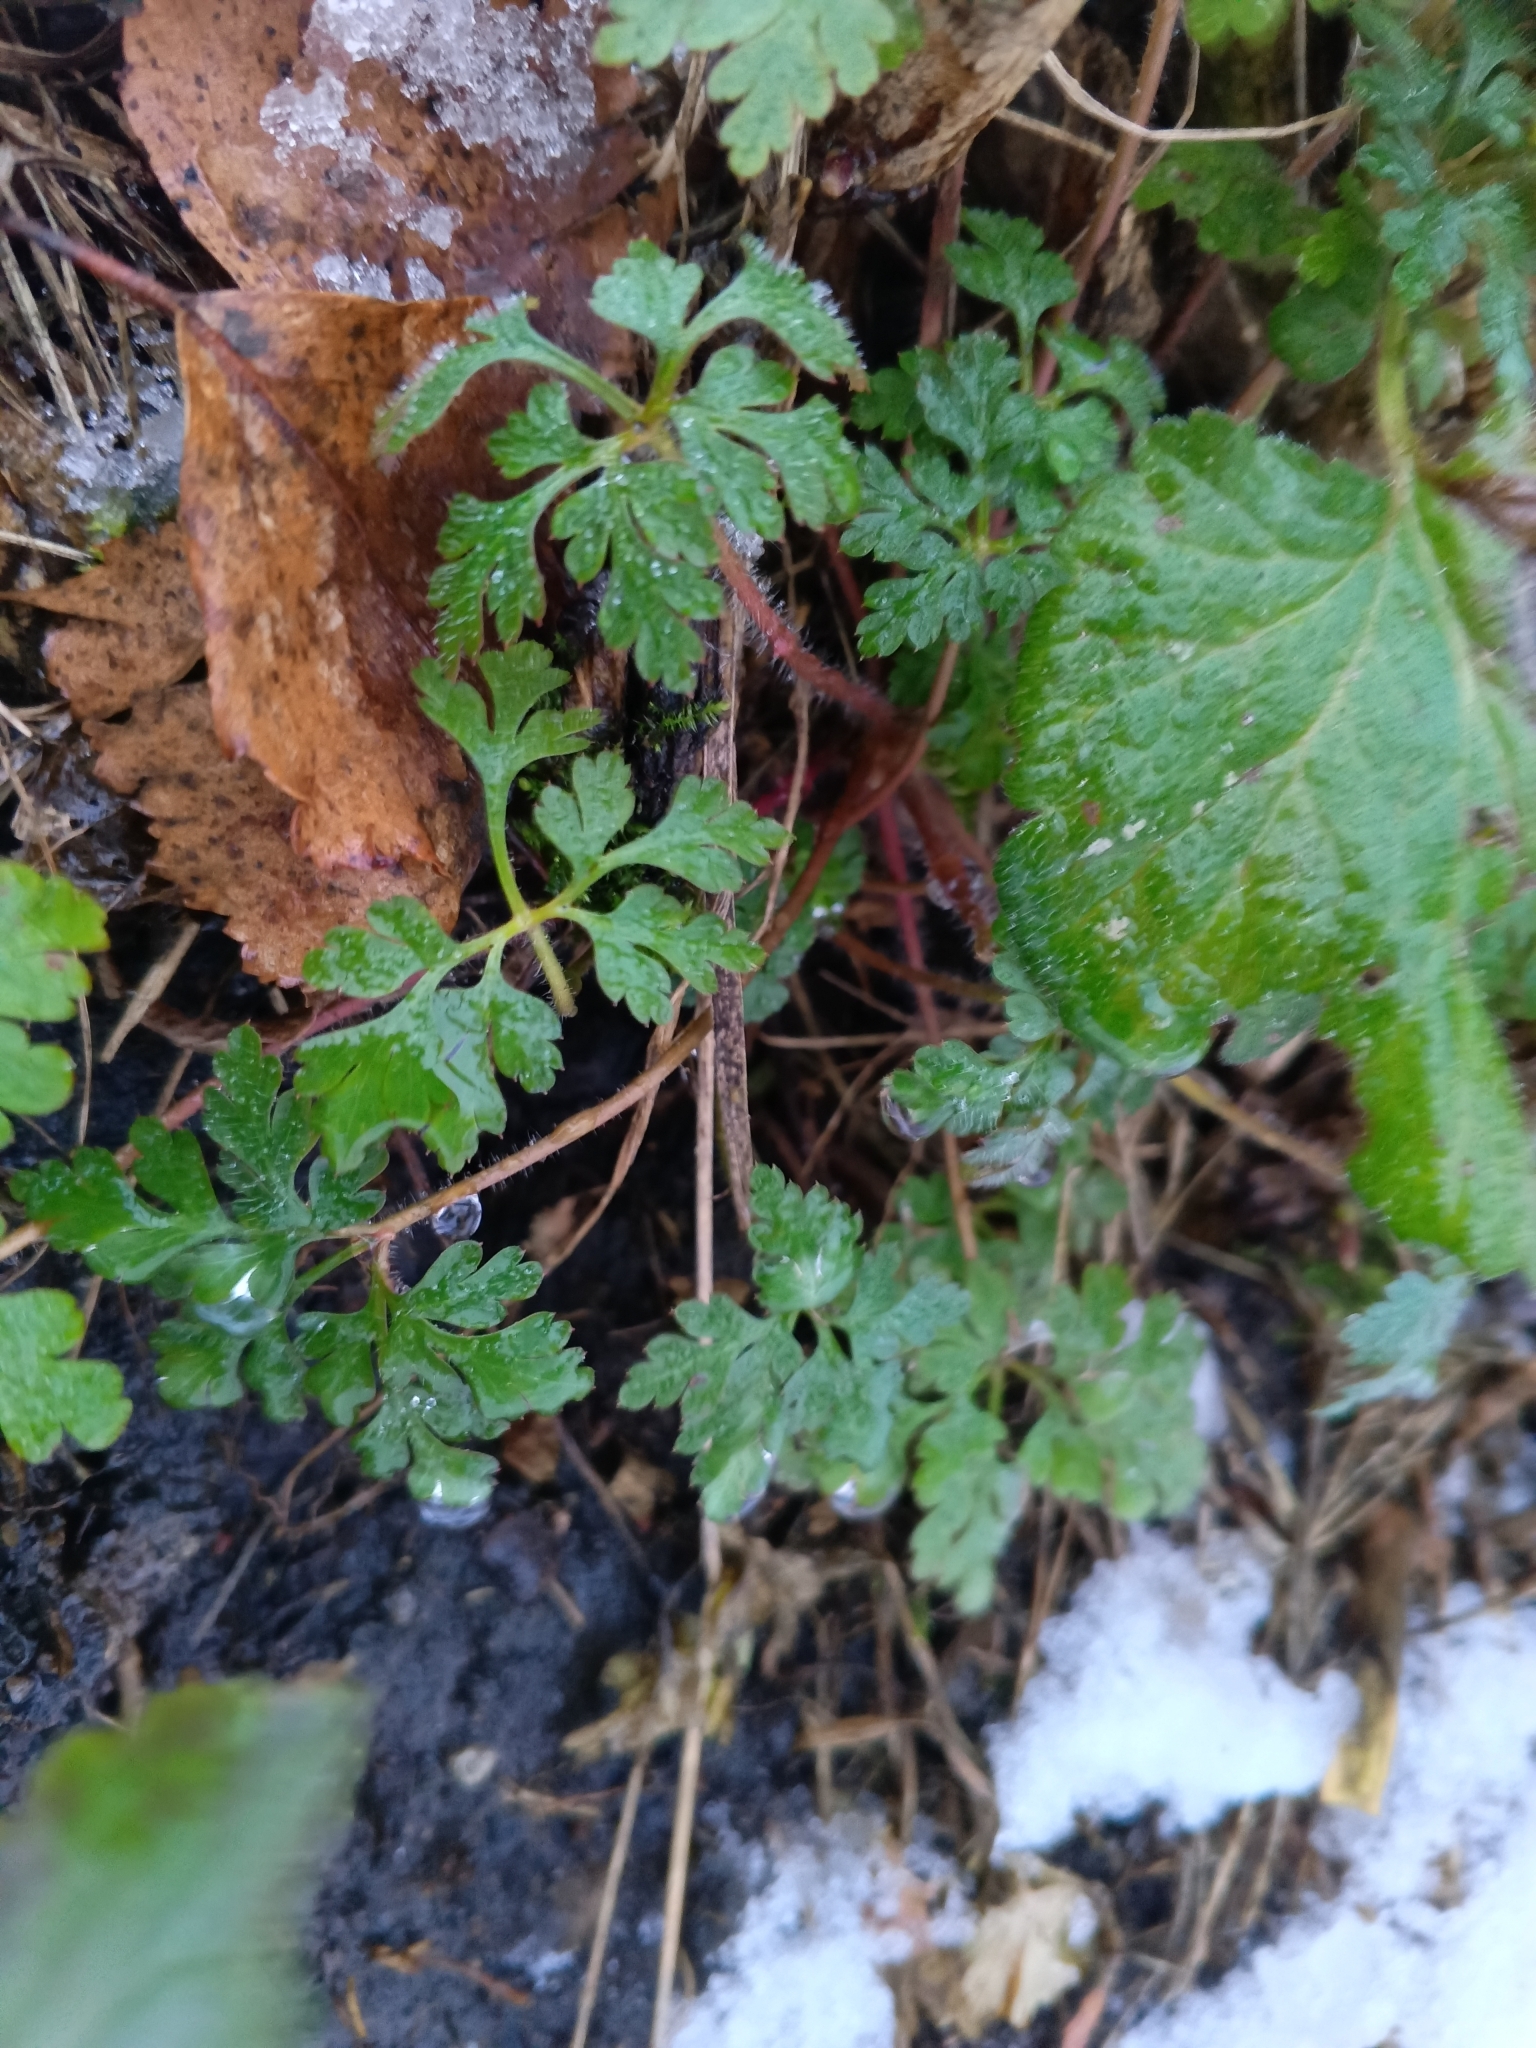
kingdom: Plantae
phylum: Tracheophyta
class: Magnoliopsida
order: Geraniales
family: Geraniaceae
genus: Geranium
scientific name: Geranium robertianum
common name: Herb-robert
